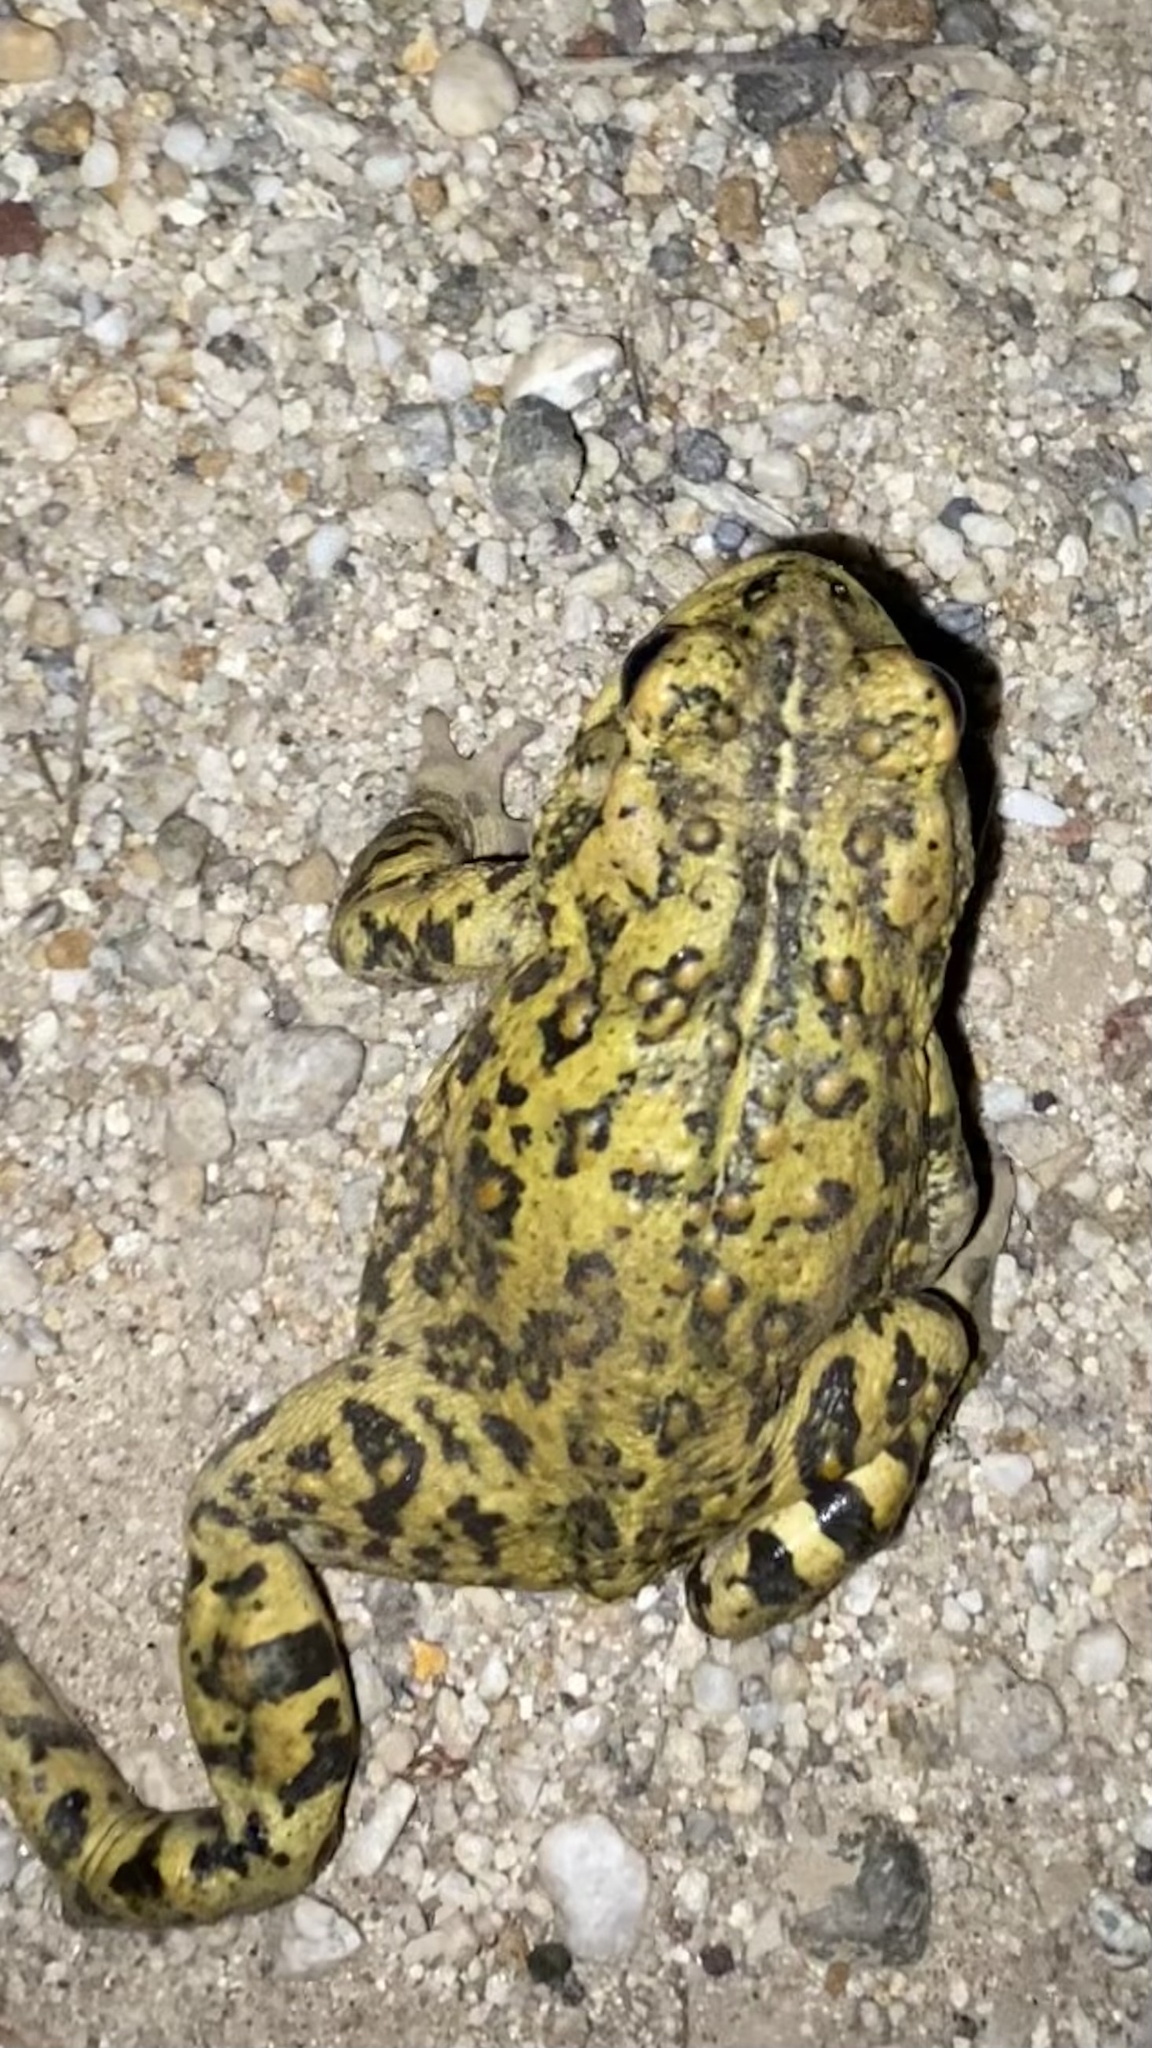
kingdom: Animalia
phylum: Chordata
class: Amphibia
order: Anura
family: Bufonidae
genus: Anaxyrus
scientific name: Anaxyrus boreas
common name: Western toad
